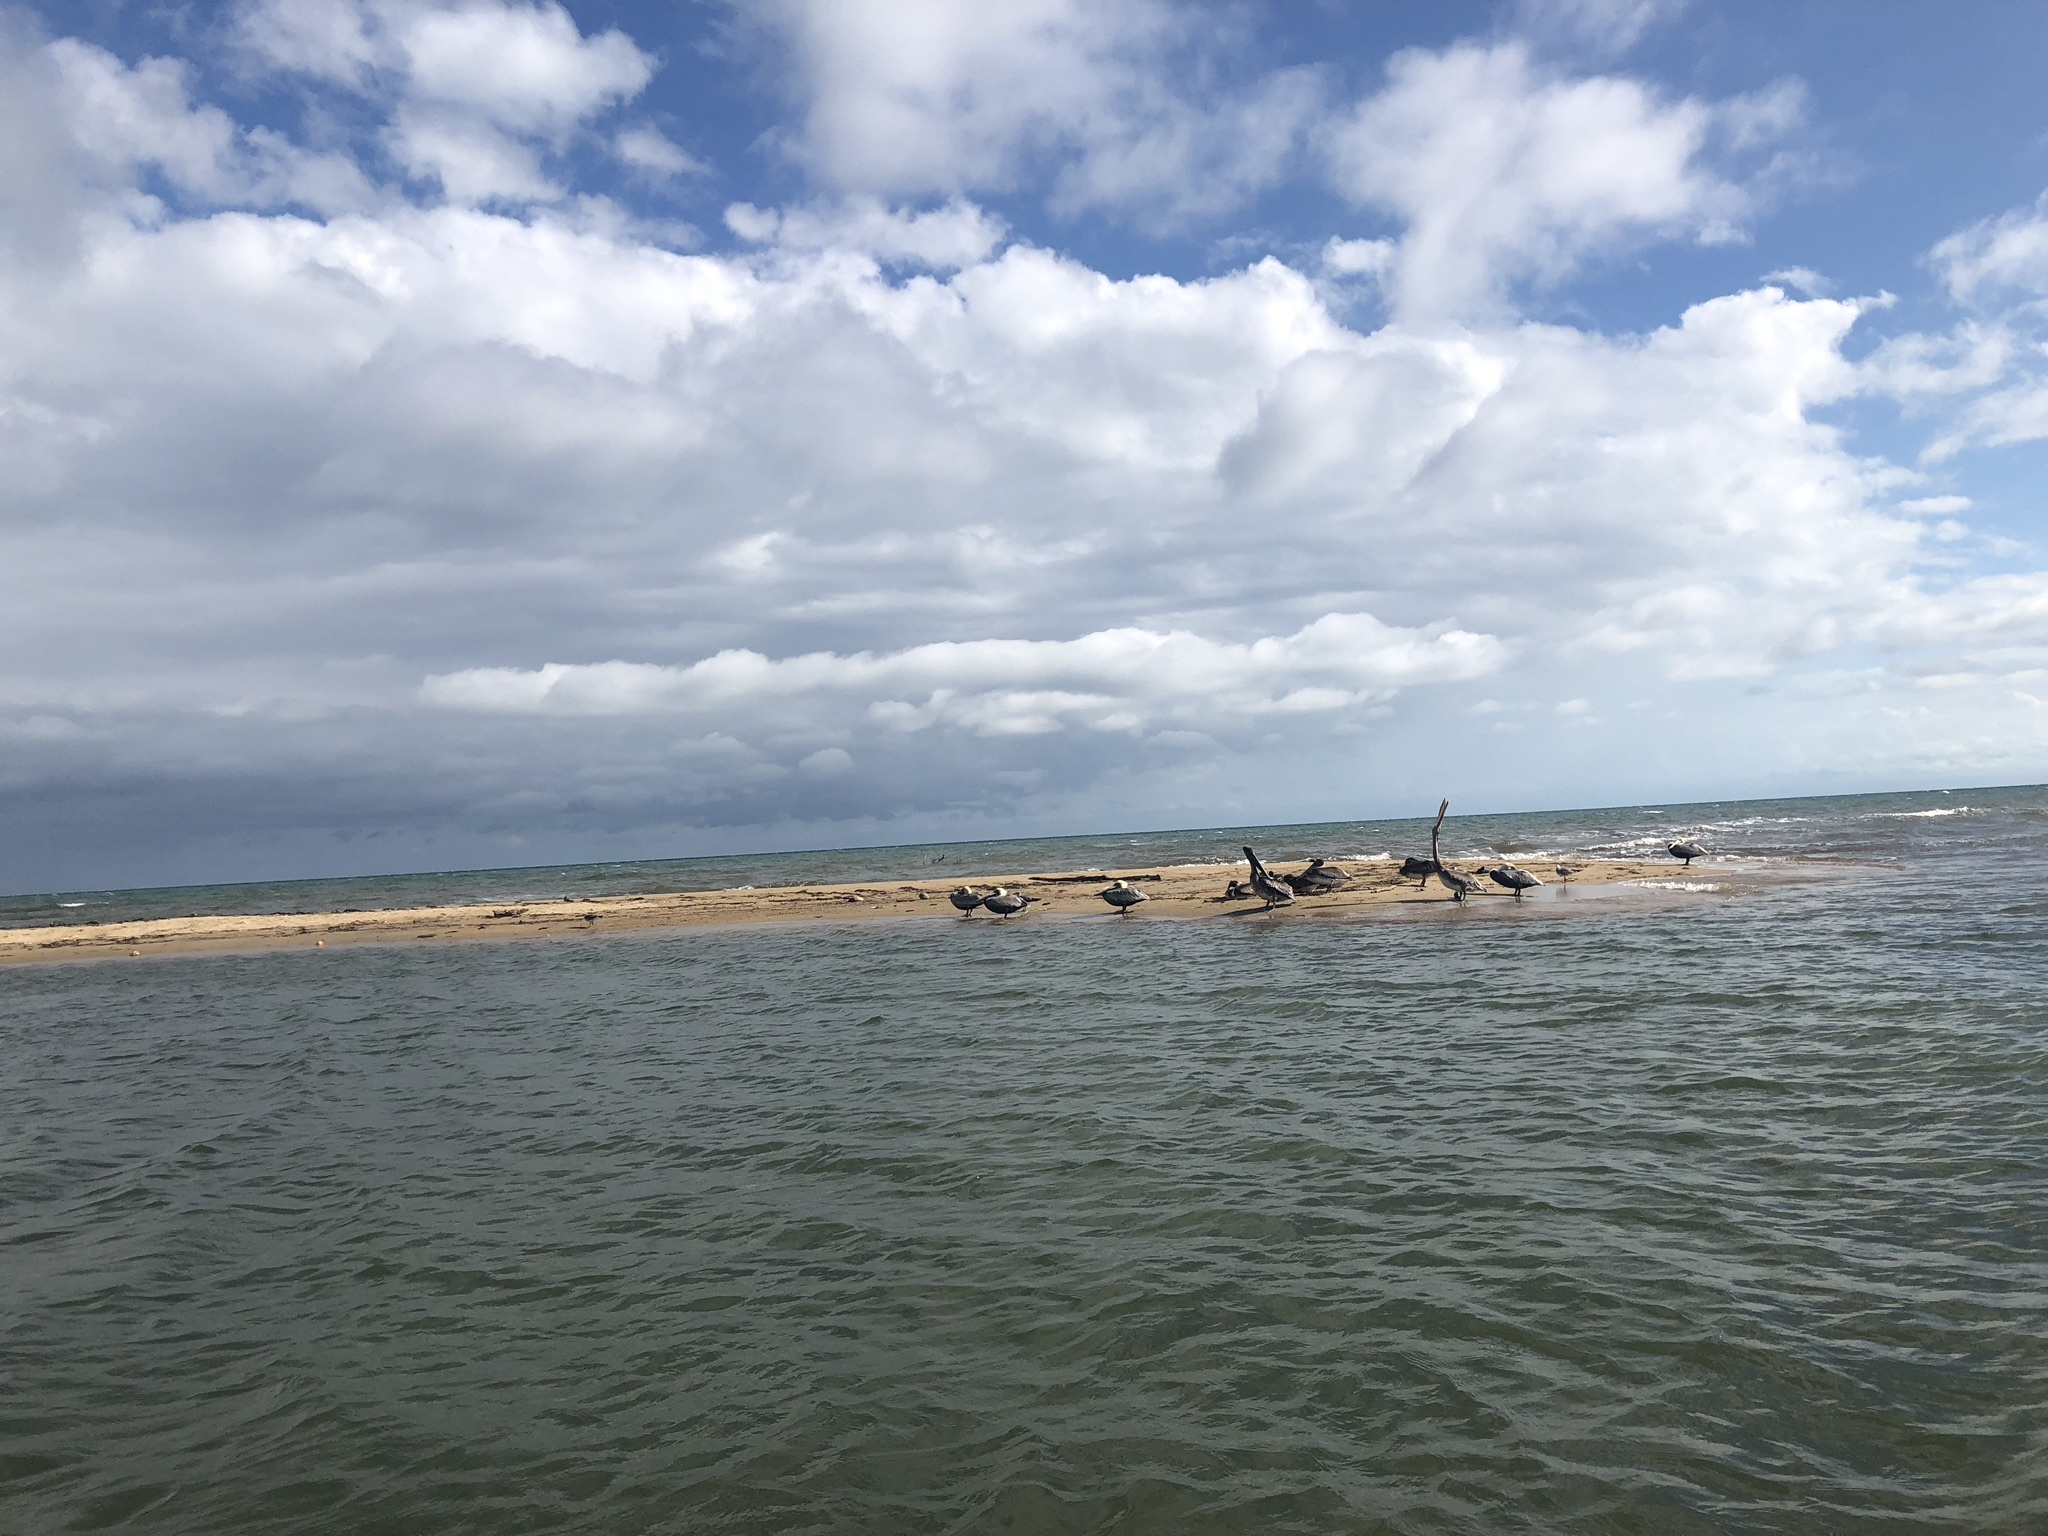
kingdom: Animalia
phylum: Chordata
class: Aves
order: Pelecaniformes
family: Pelecanidae
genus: Pelecanus
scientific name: Pelecanus occidentalis
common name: Brown pelican
